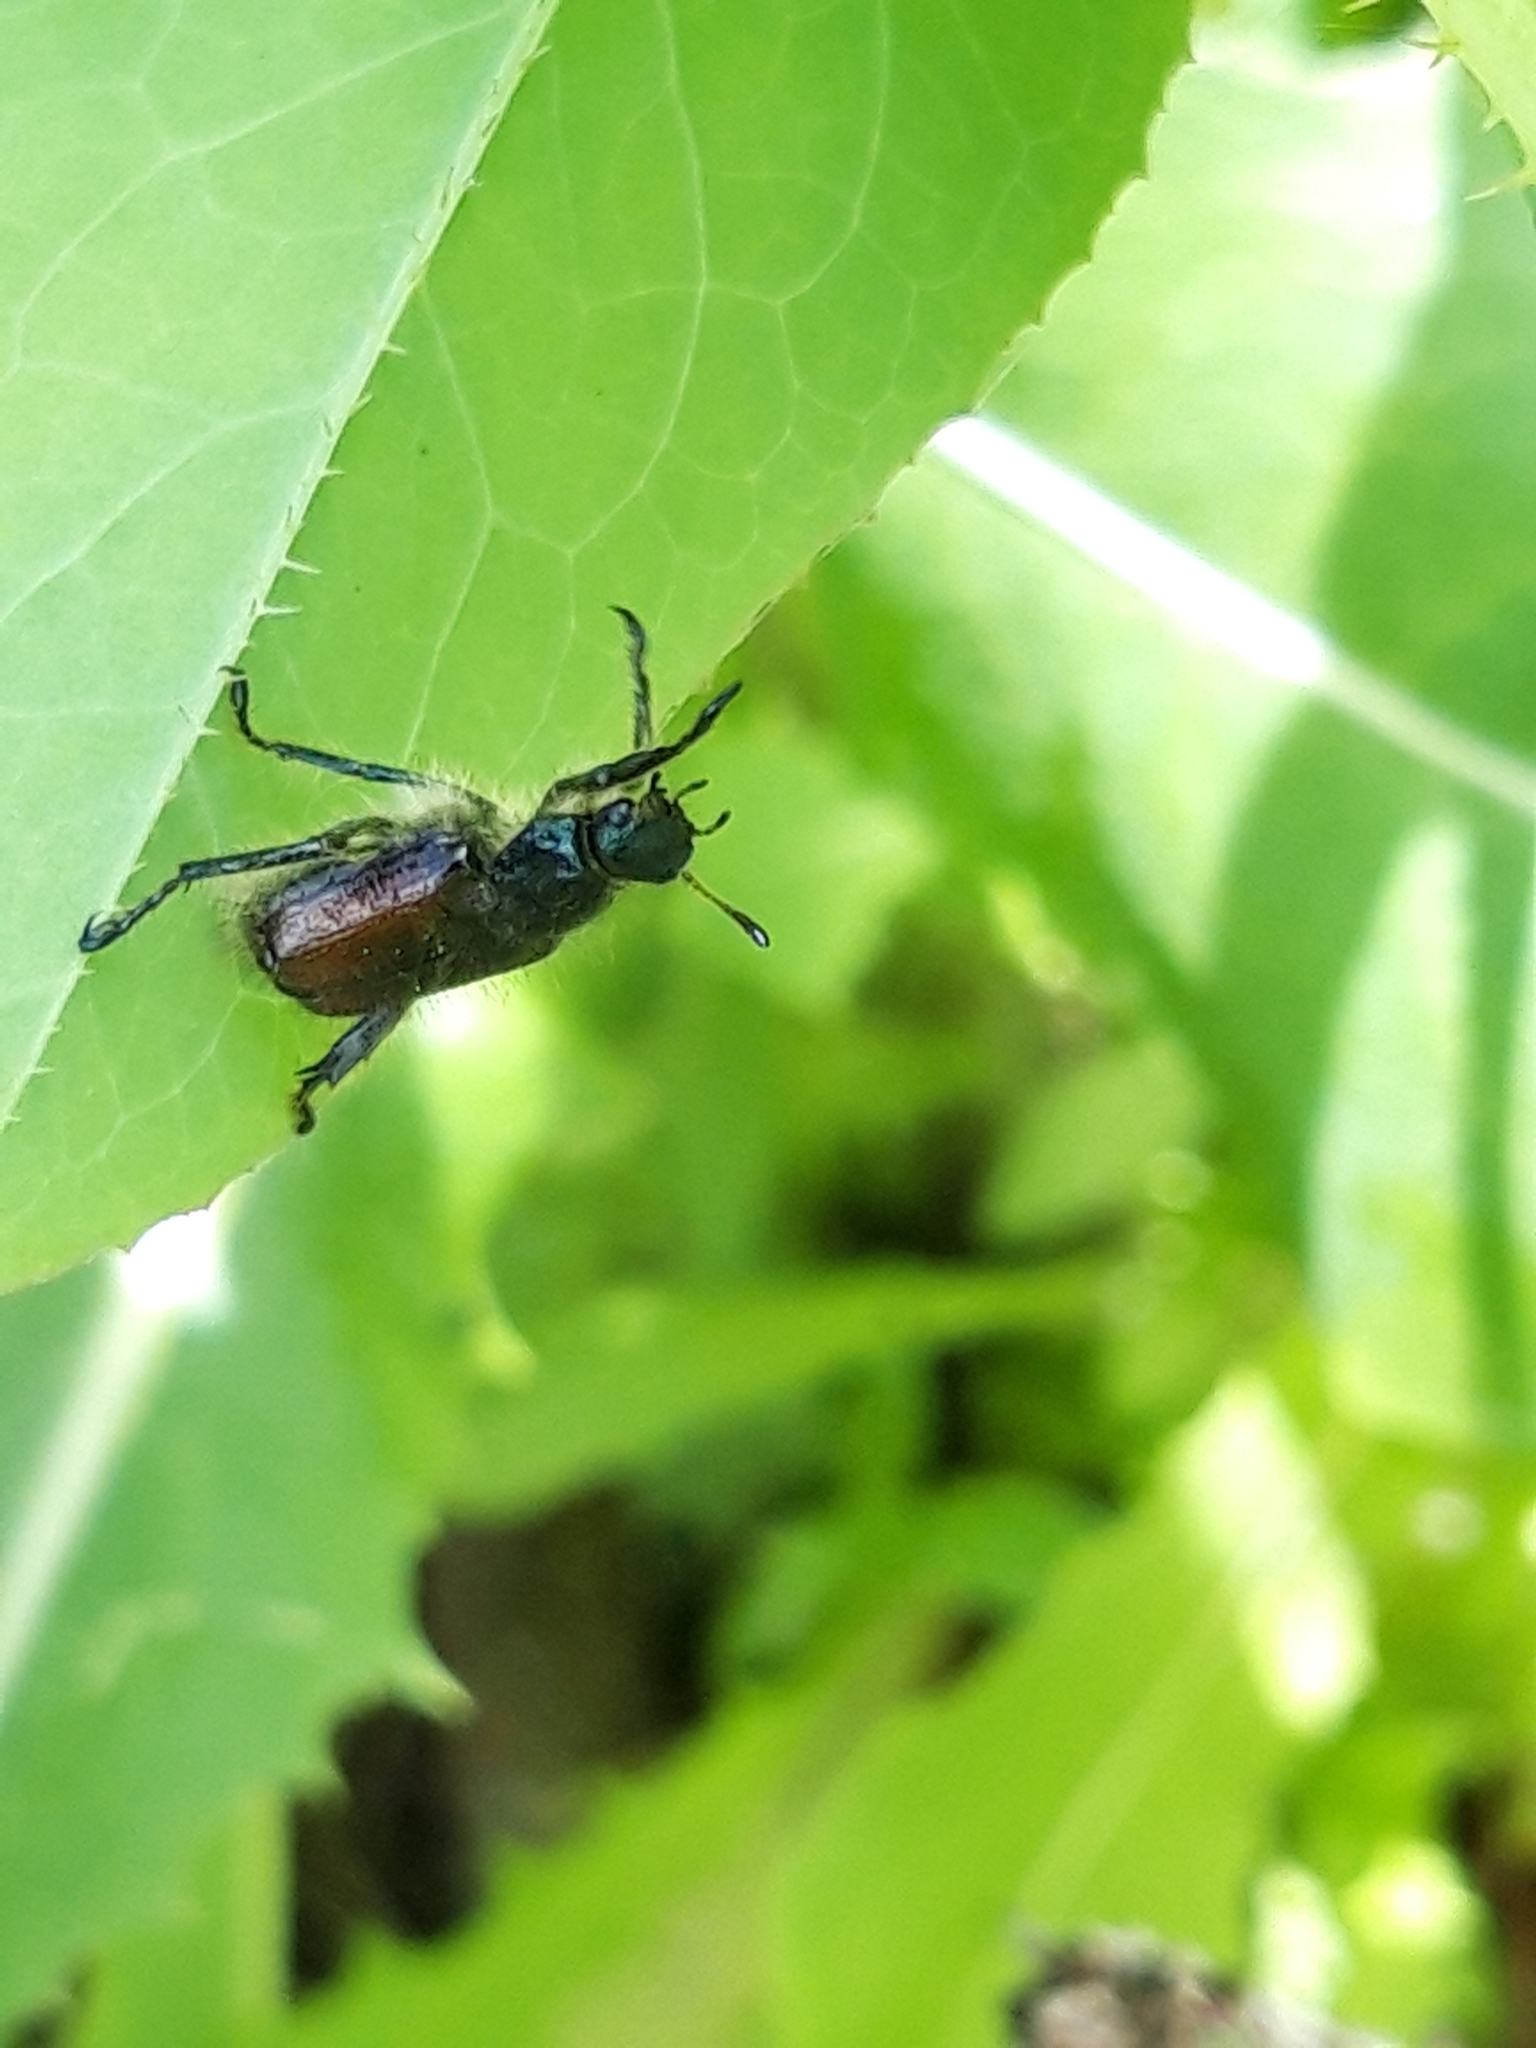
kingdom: Animalia
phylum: Arthropoda
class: Insecta
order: Coleoptera
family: Scarabaeidae
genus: Phyllopertha
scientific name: Phyllopertha horticola
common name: Garden chafer
